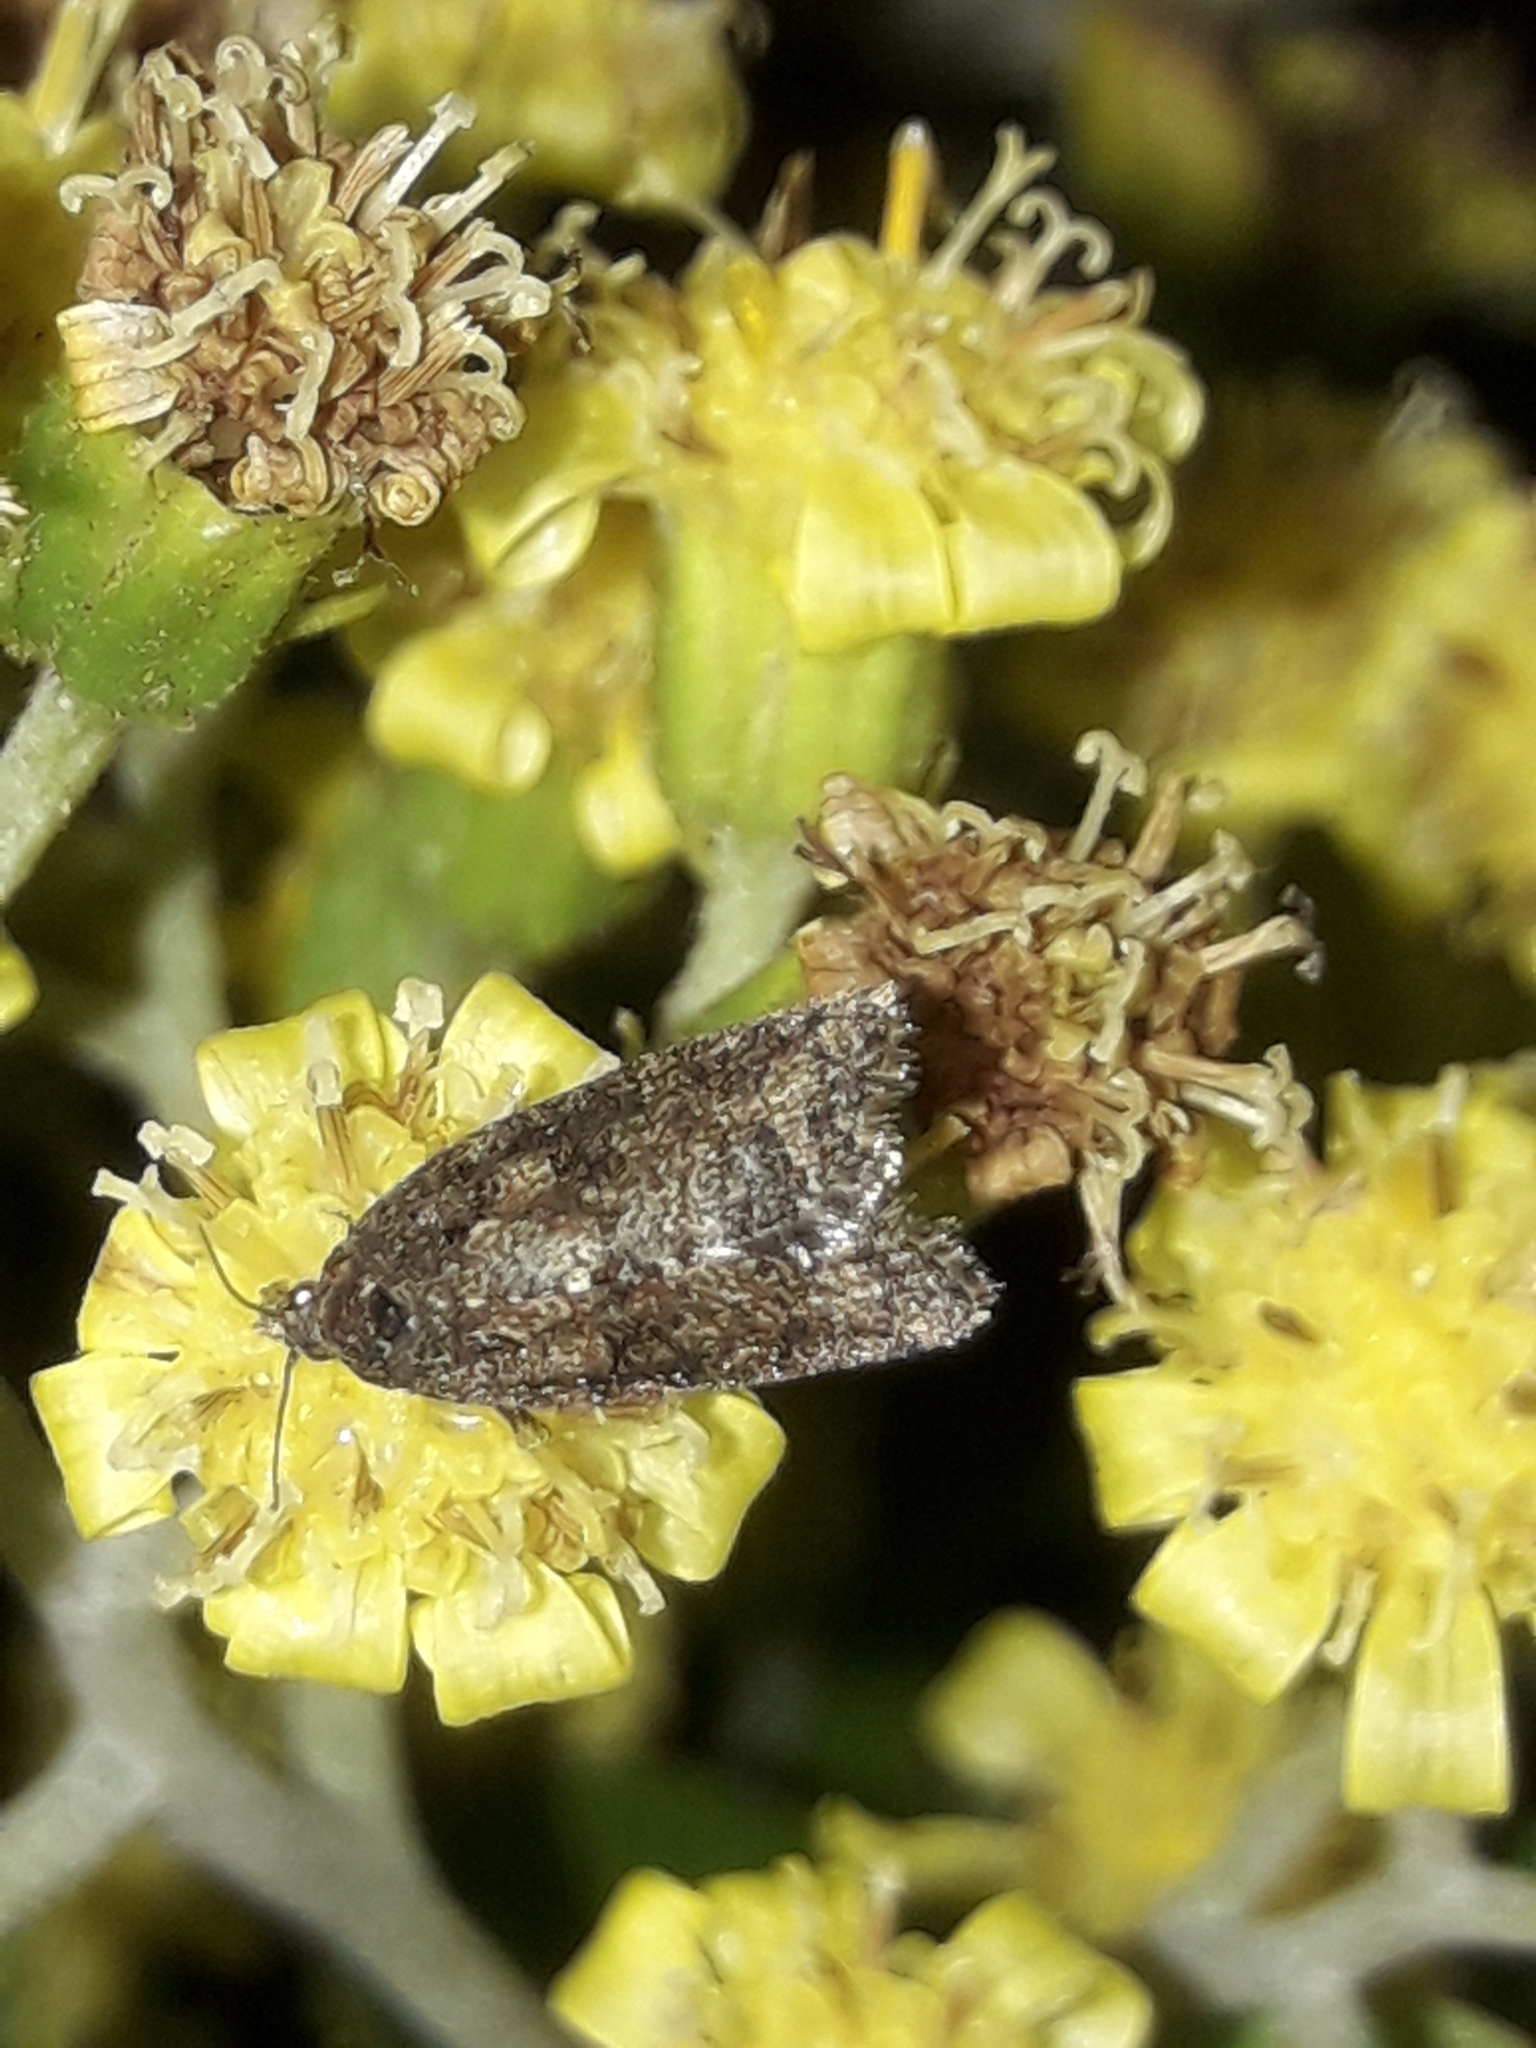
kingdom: Animalia
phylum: Arthropoda
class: Insecta
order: Lepidoptera
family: Tortricidae
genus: Capua
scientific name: Capua intractana
